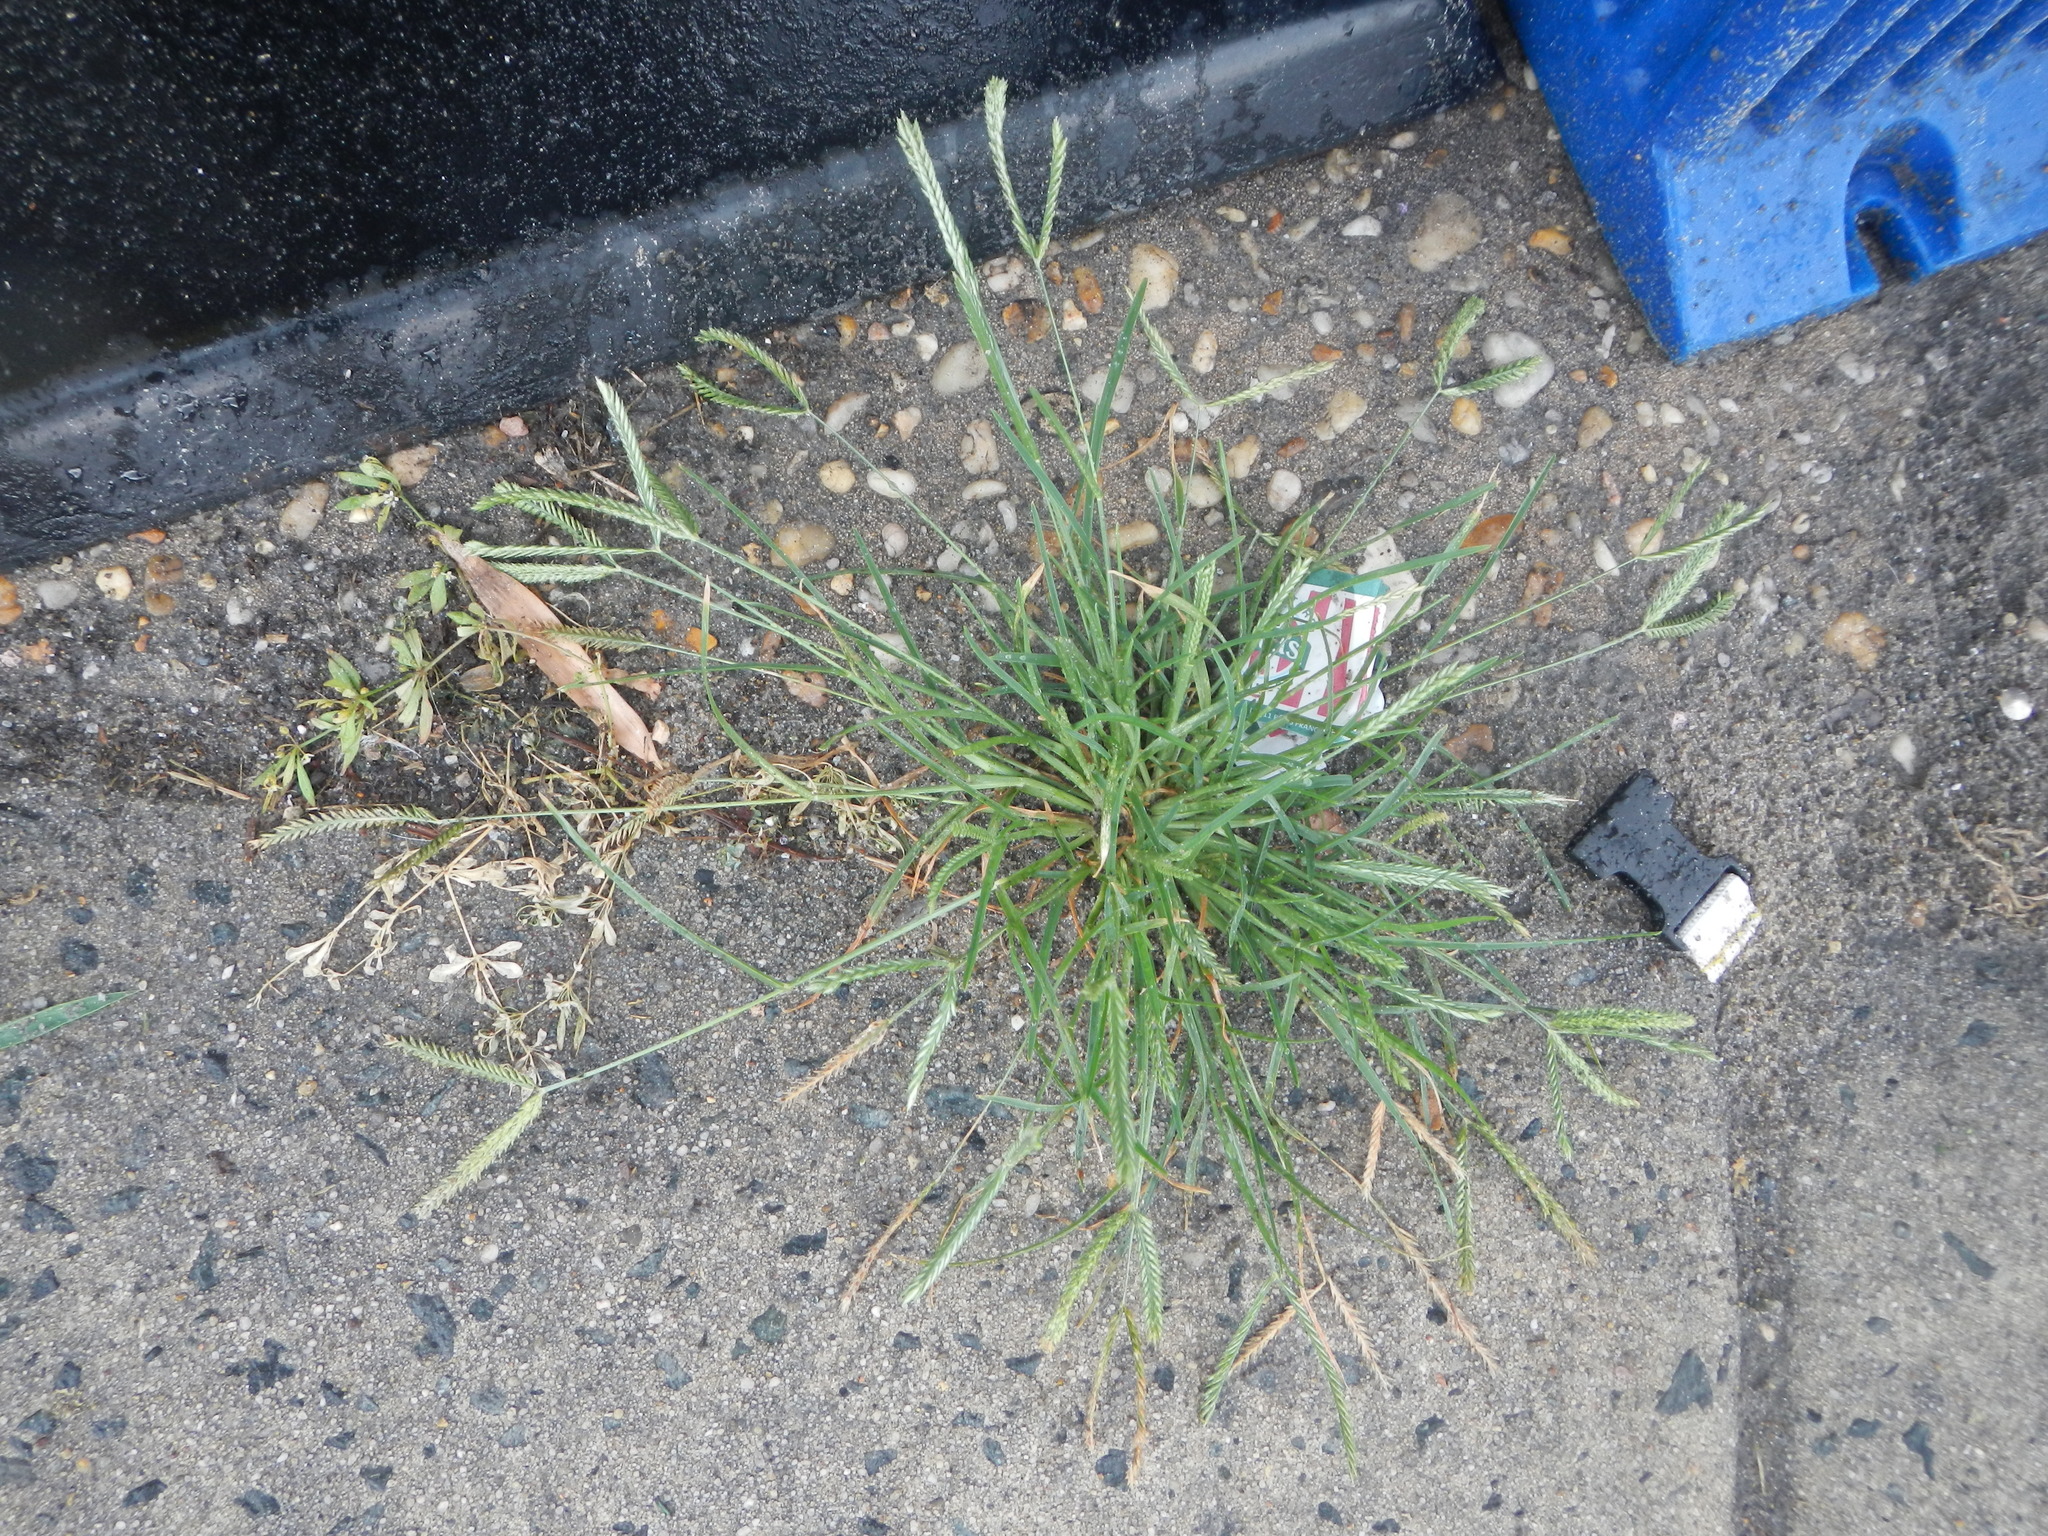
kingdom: Plantae
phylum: Tracheophyta
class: Liliopsida
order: Poales
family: Poaceae
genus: Eleusine
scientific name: Eleusine indica
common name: Yard-grass
